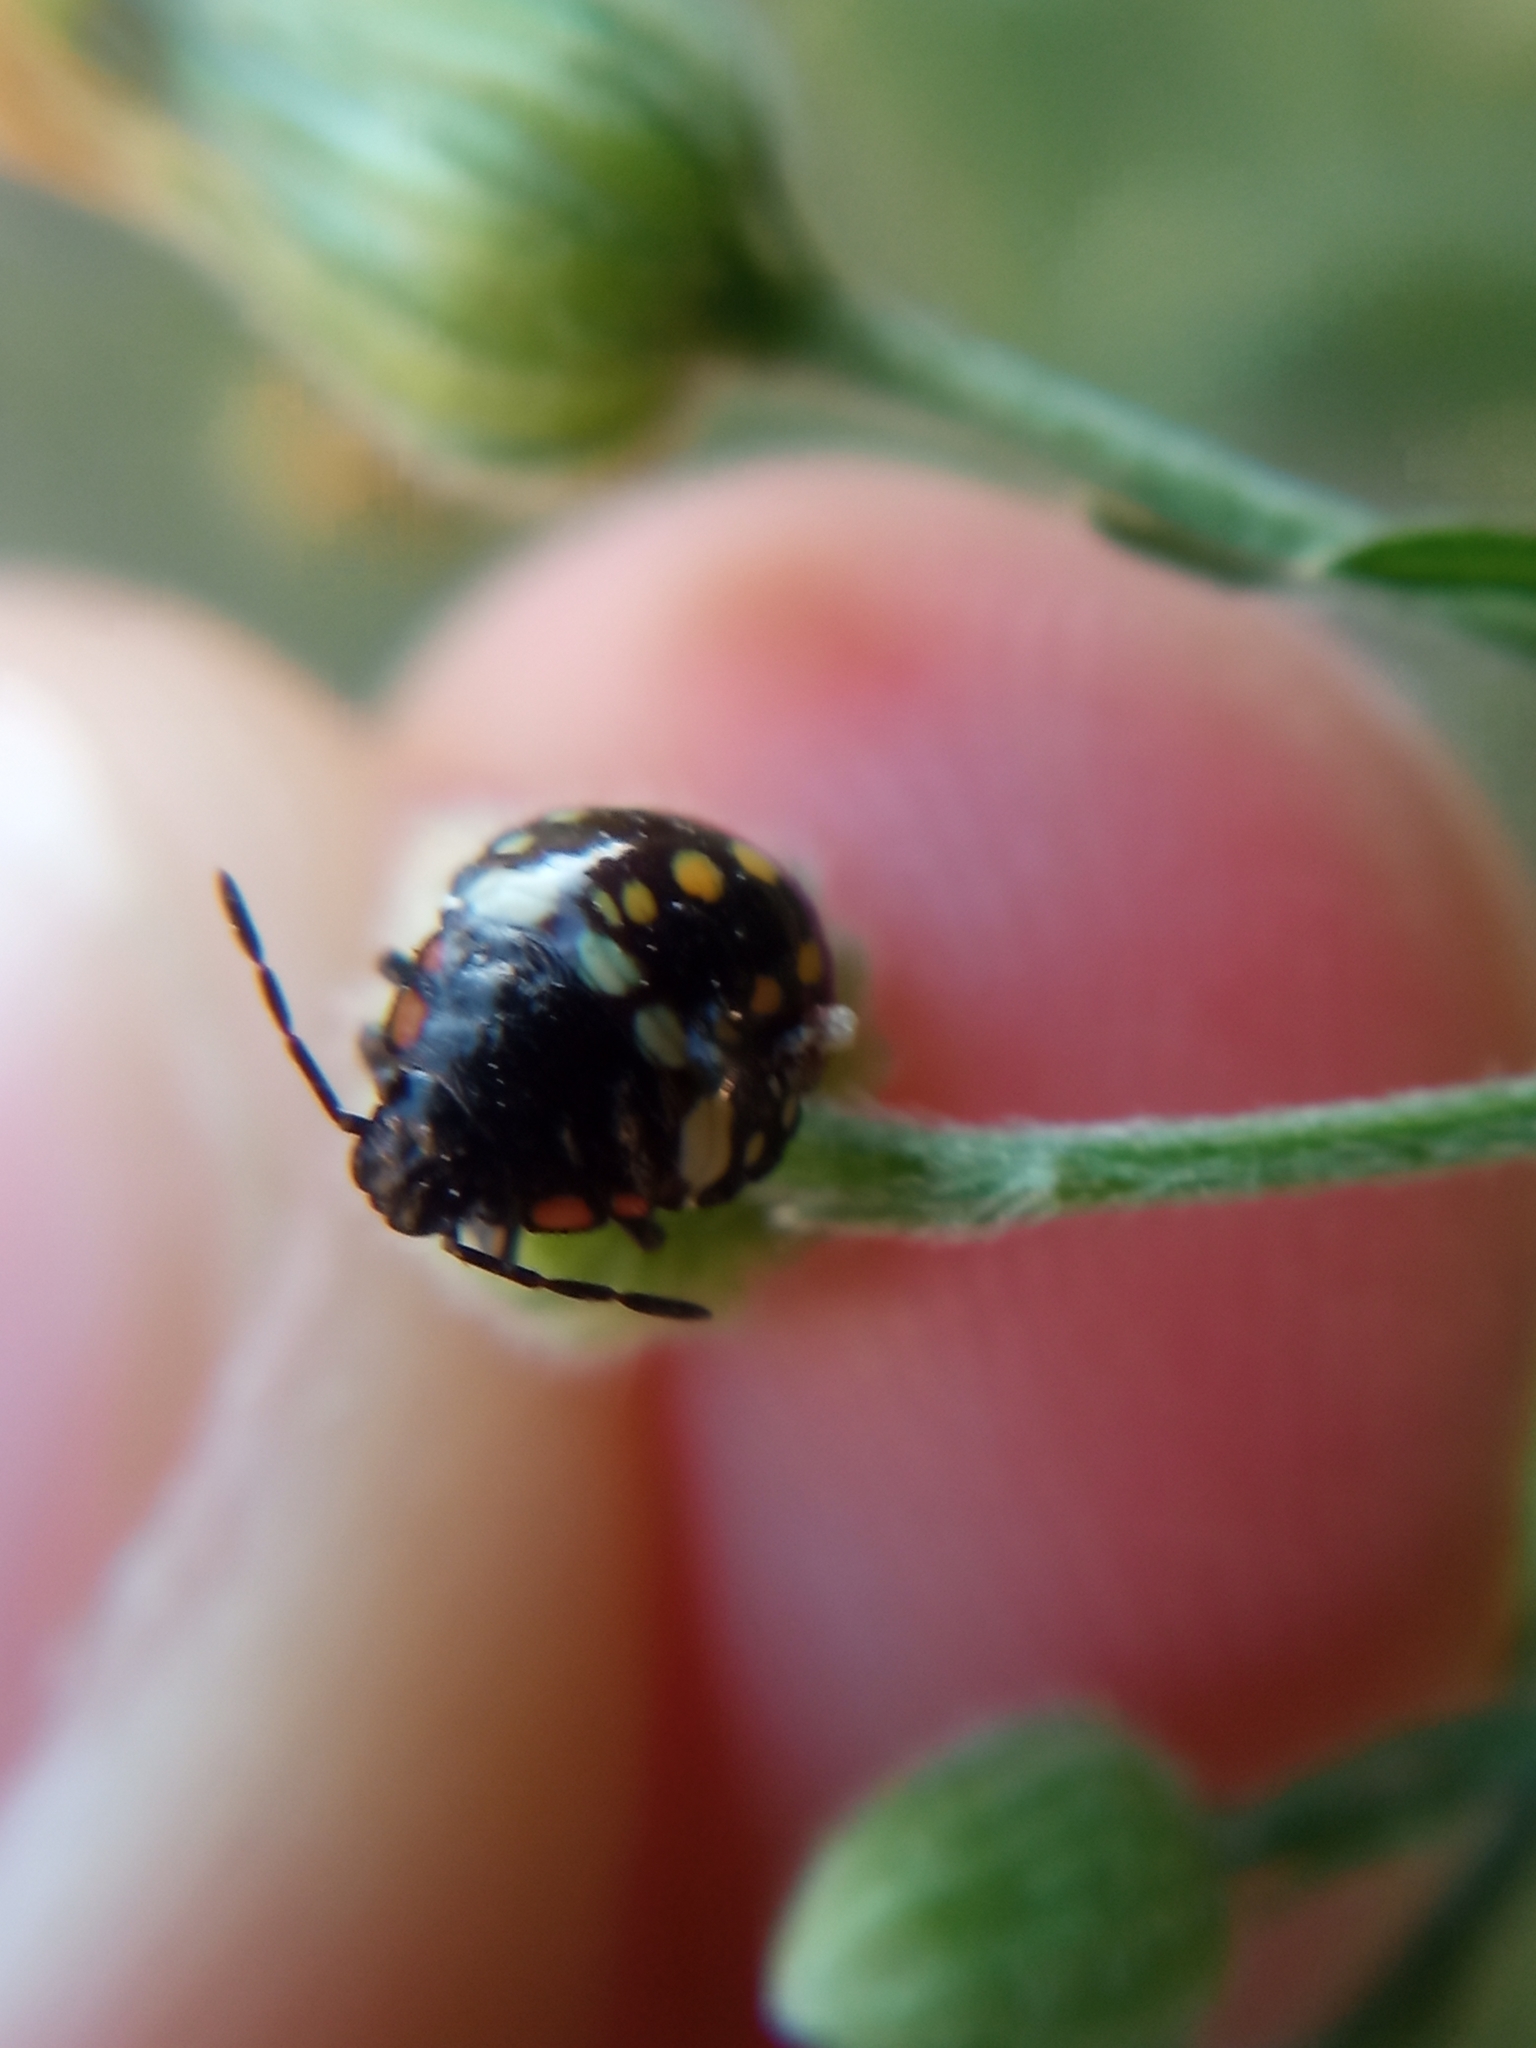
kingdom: Animalia
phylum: Arthropoda
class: Insecta
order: Hemiptera
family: Pentatomidae
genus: Nezara
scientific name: Nezara viridula
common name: Southern green stink bug
